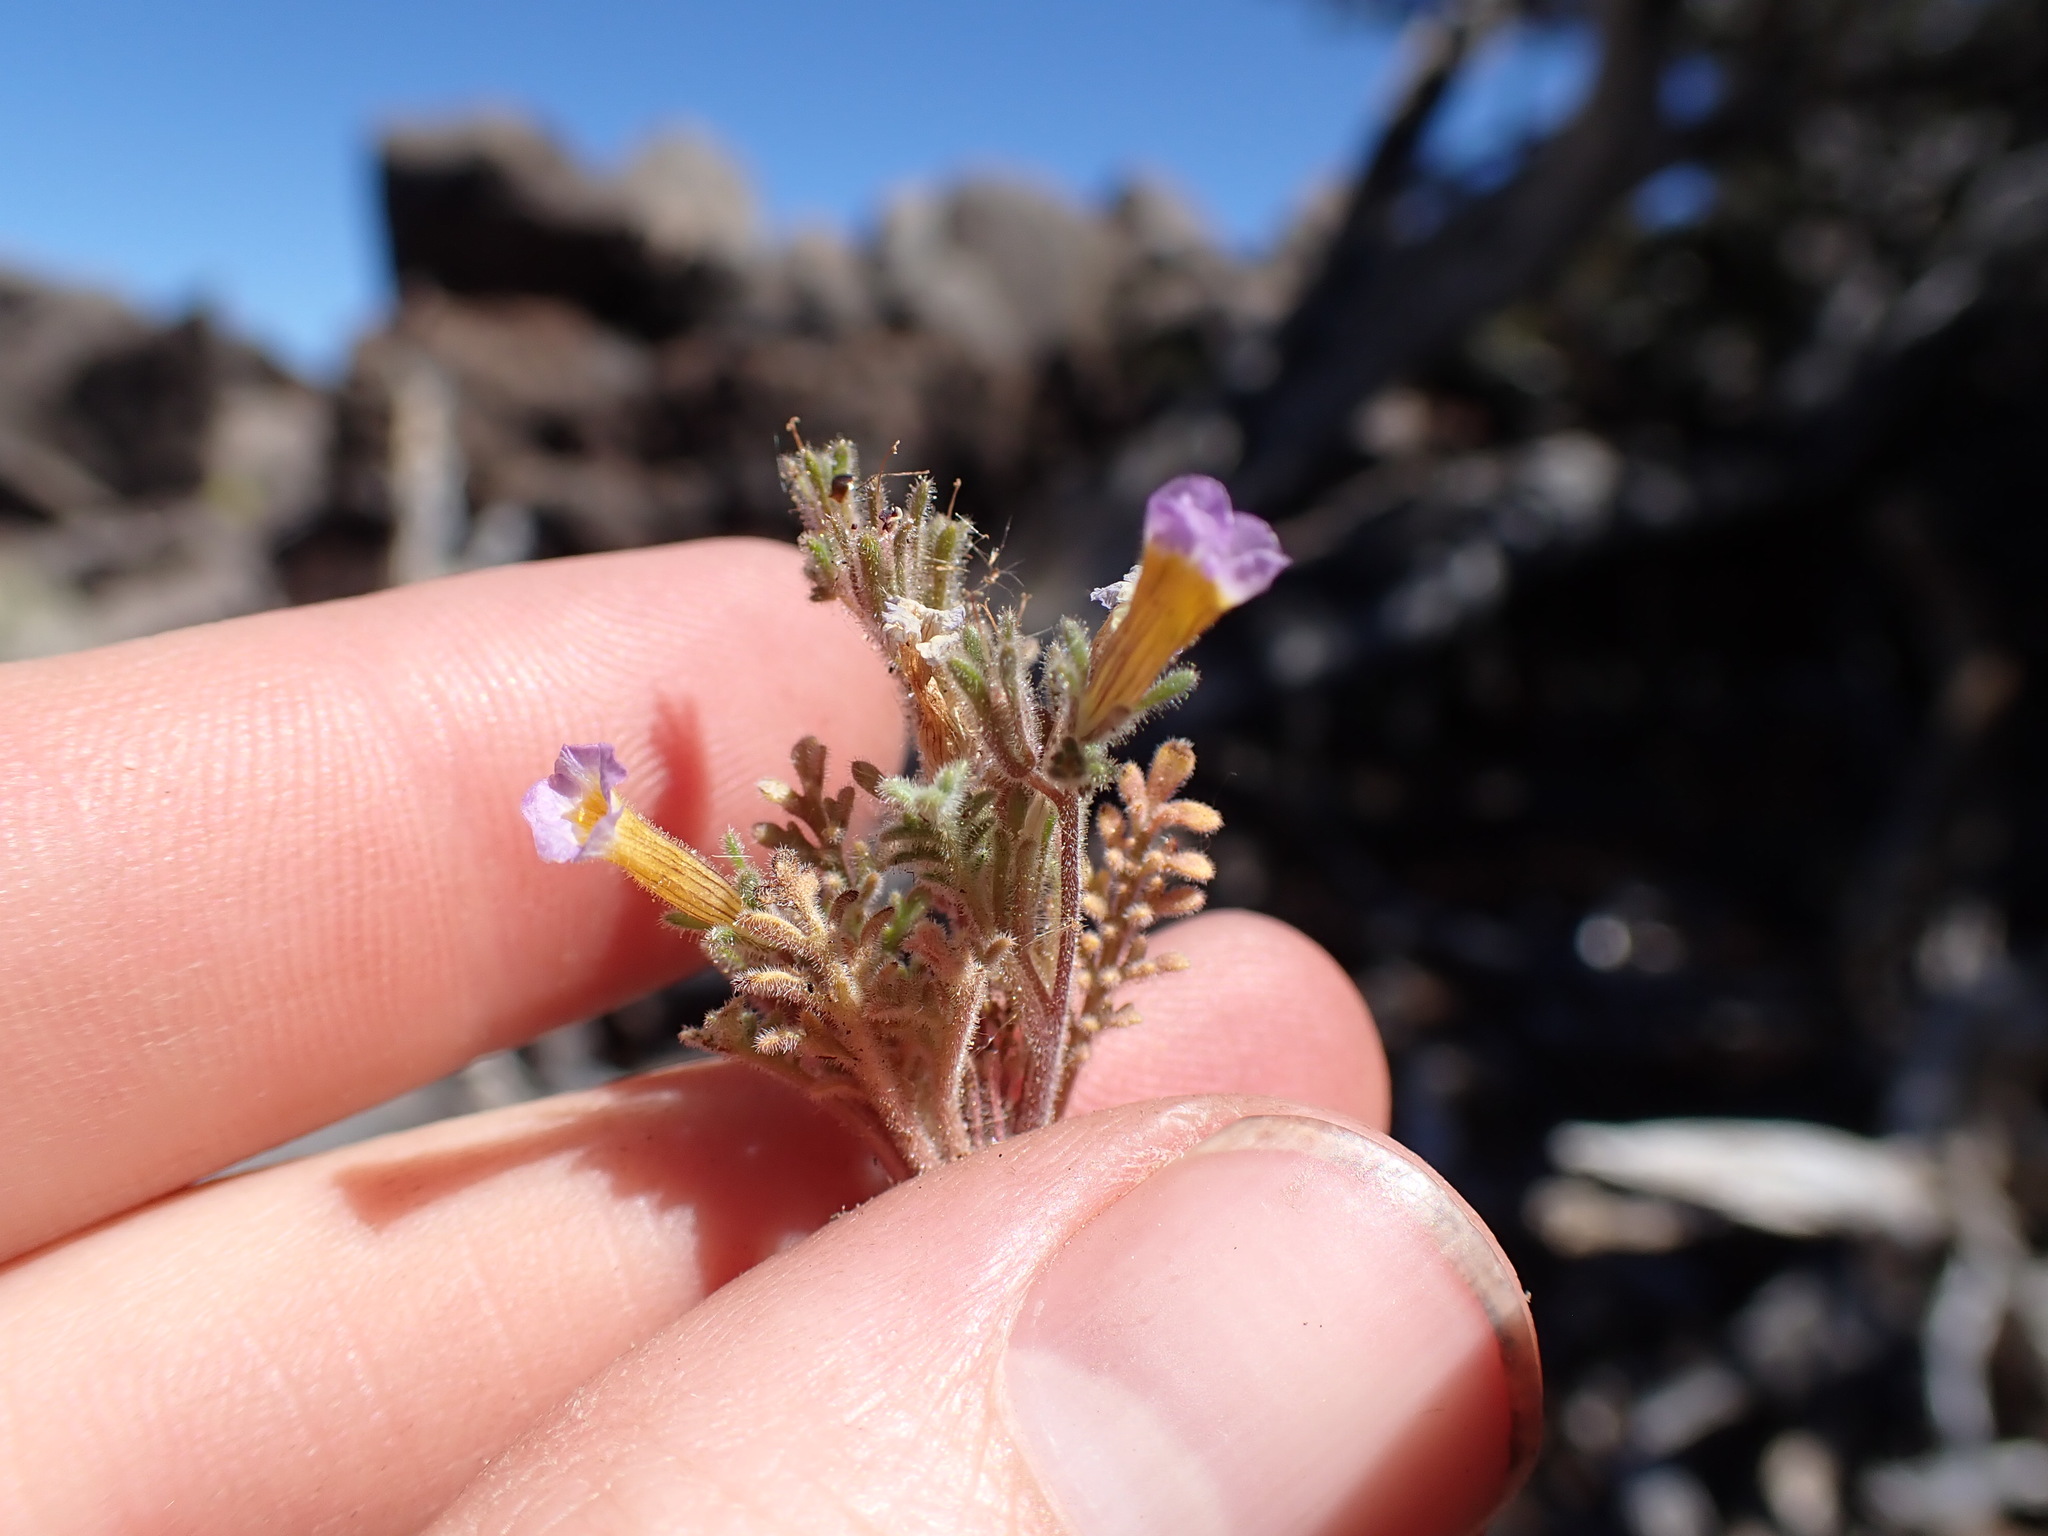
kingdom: Plantae
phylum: Tracheophyta
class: Magnoliopsida
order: Boraginales
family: Hydrophyllaceae
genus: Phacelia
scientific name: Phacelia bicolor
